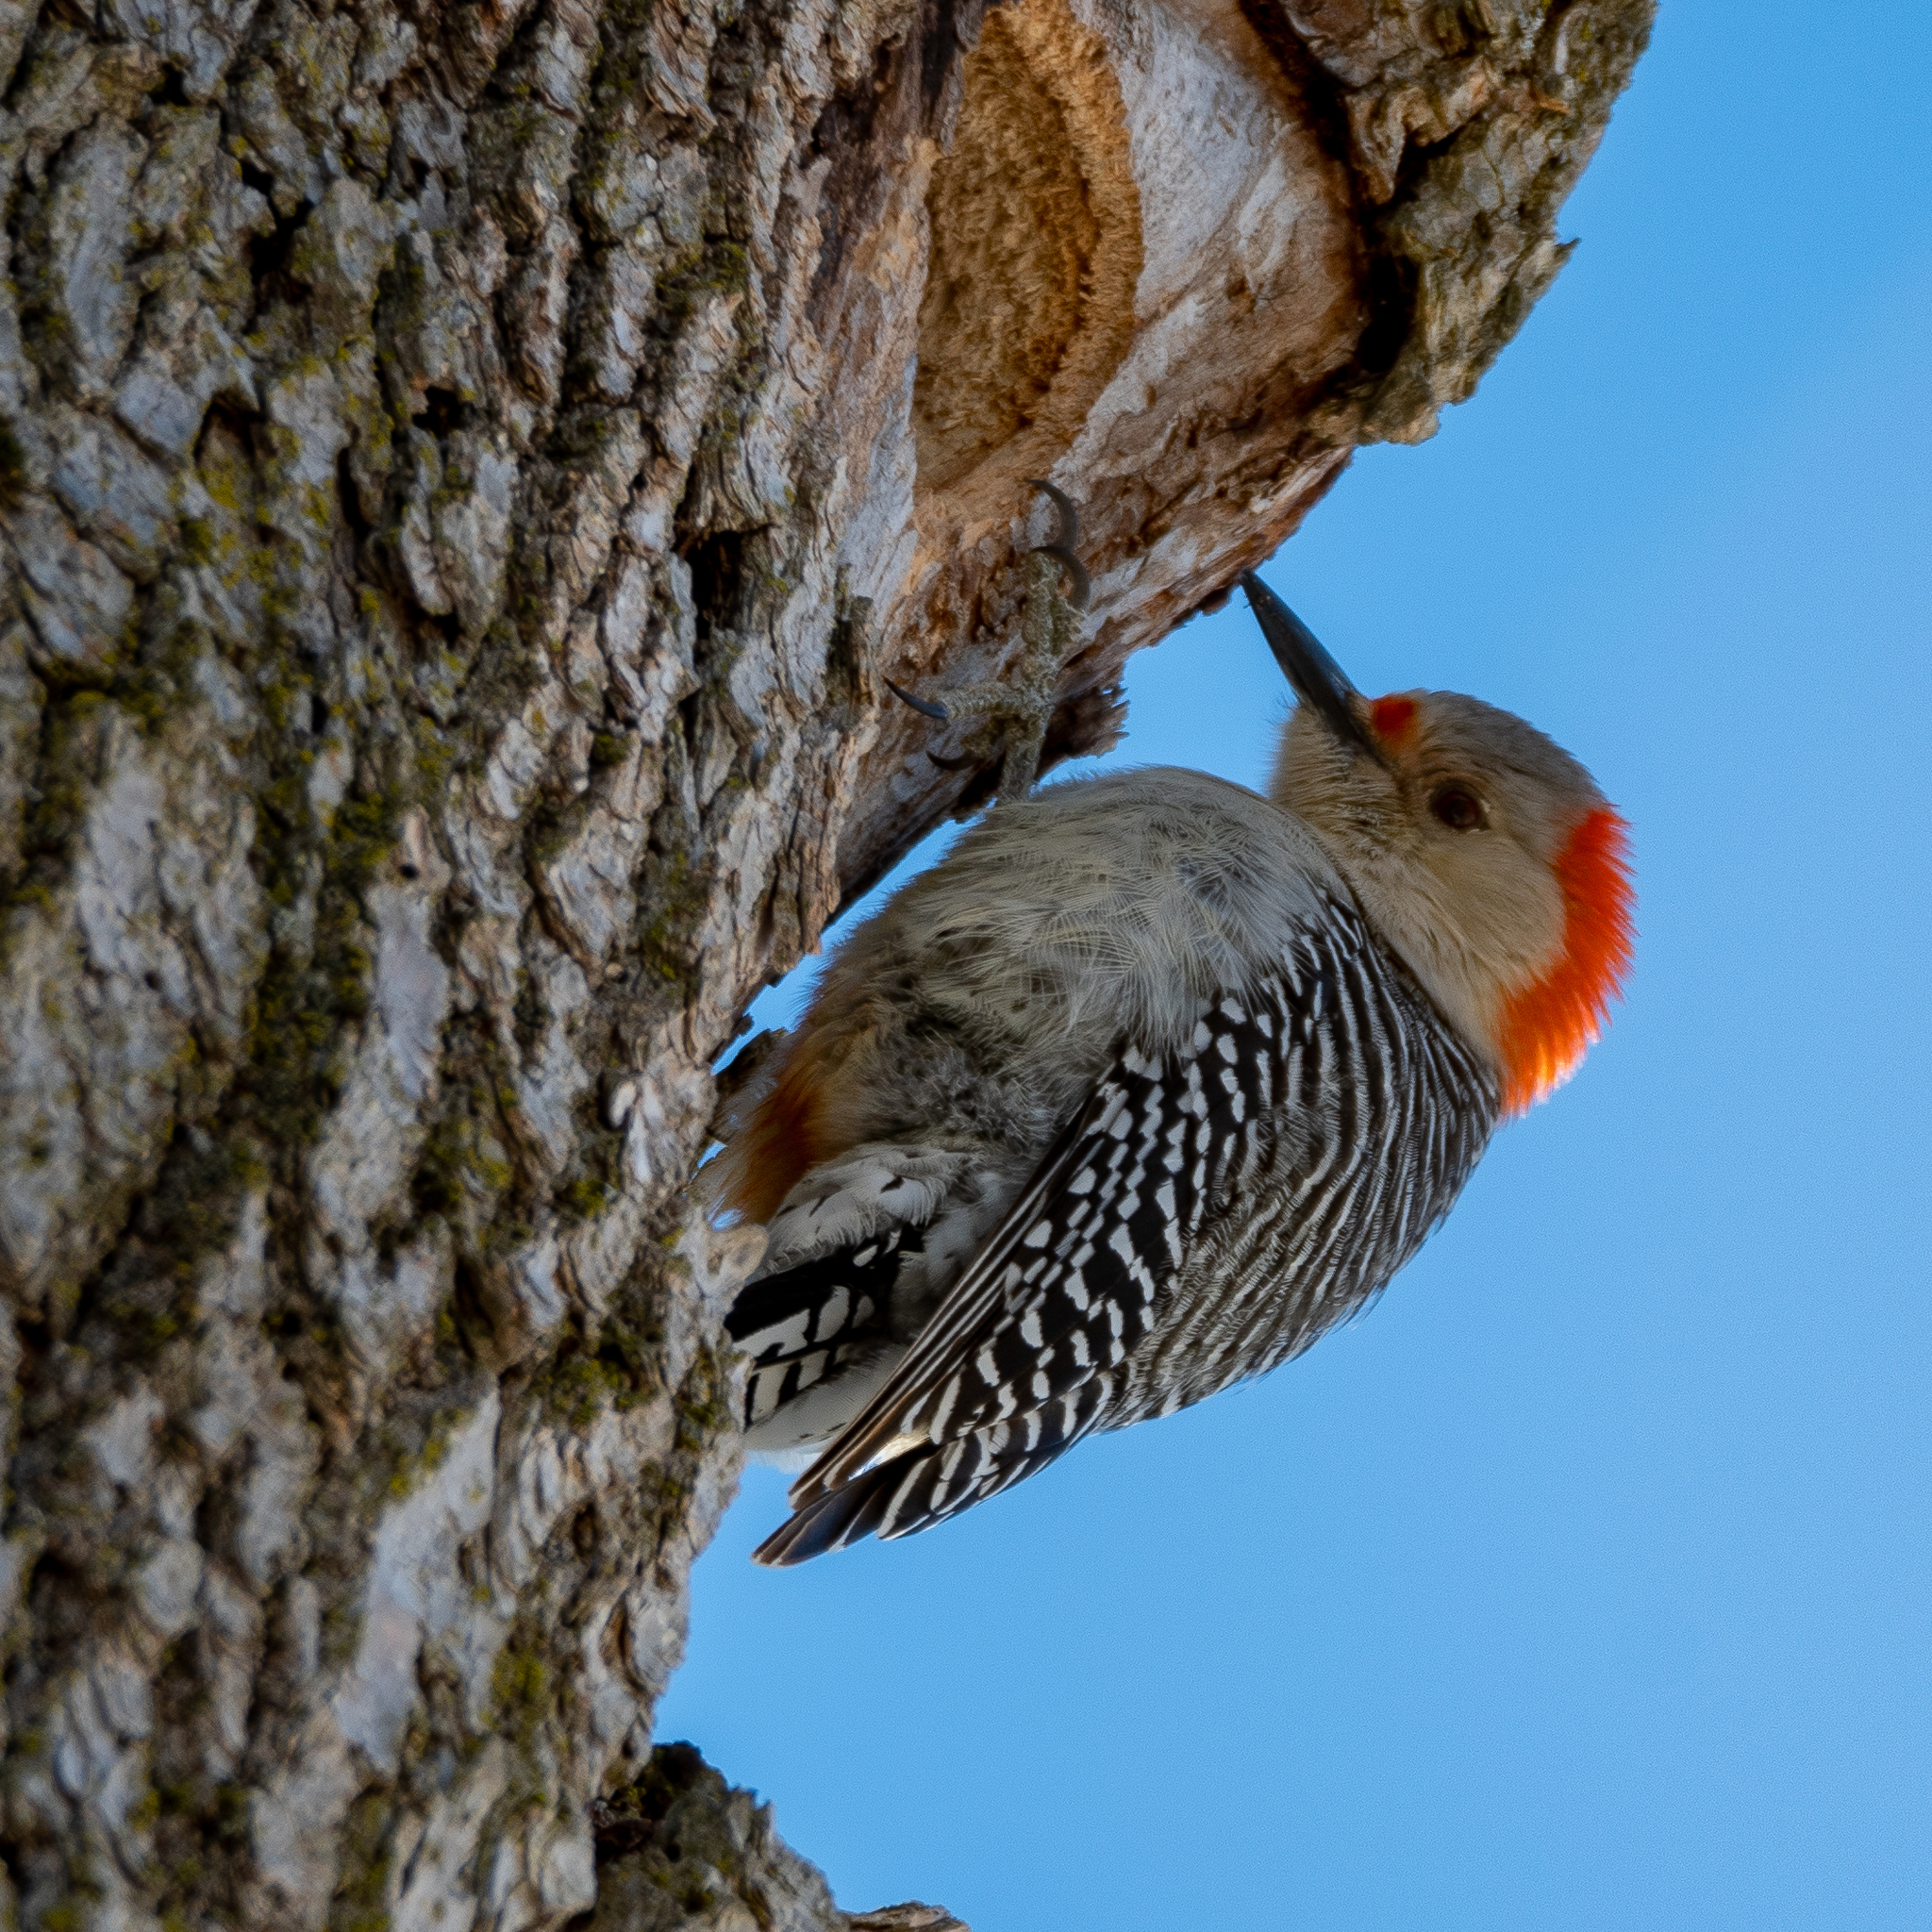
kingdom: Animalia
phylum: Chordata
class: Aves
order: Piciformes
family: Picidae
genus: Melanerpes
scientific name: Melanerpes carolinus
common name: Red-bellied woodpecker
